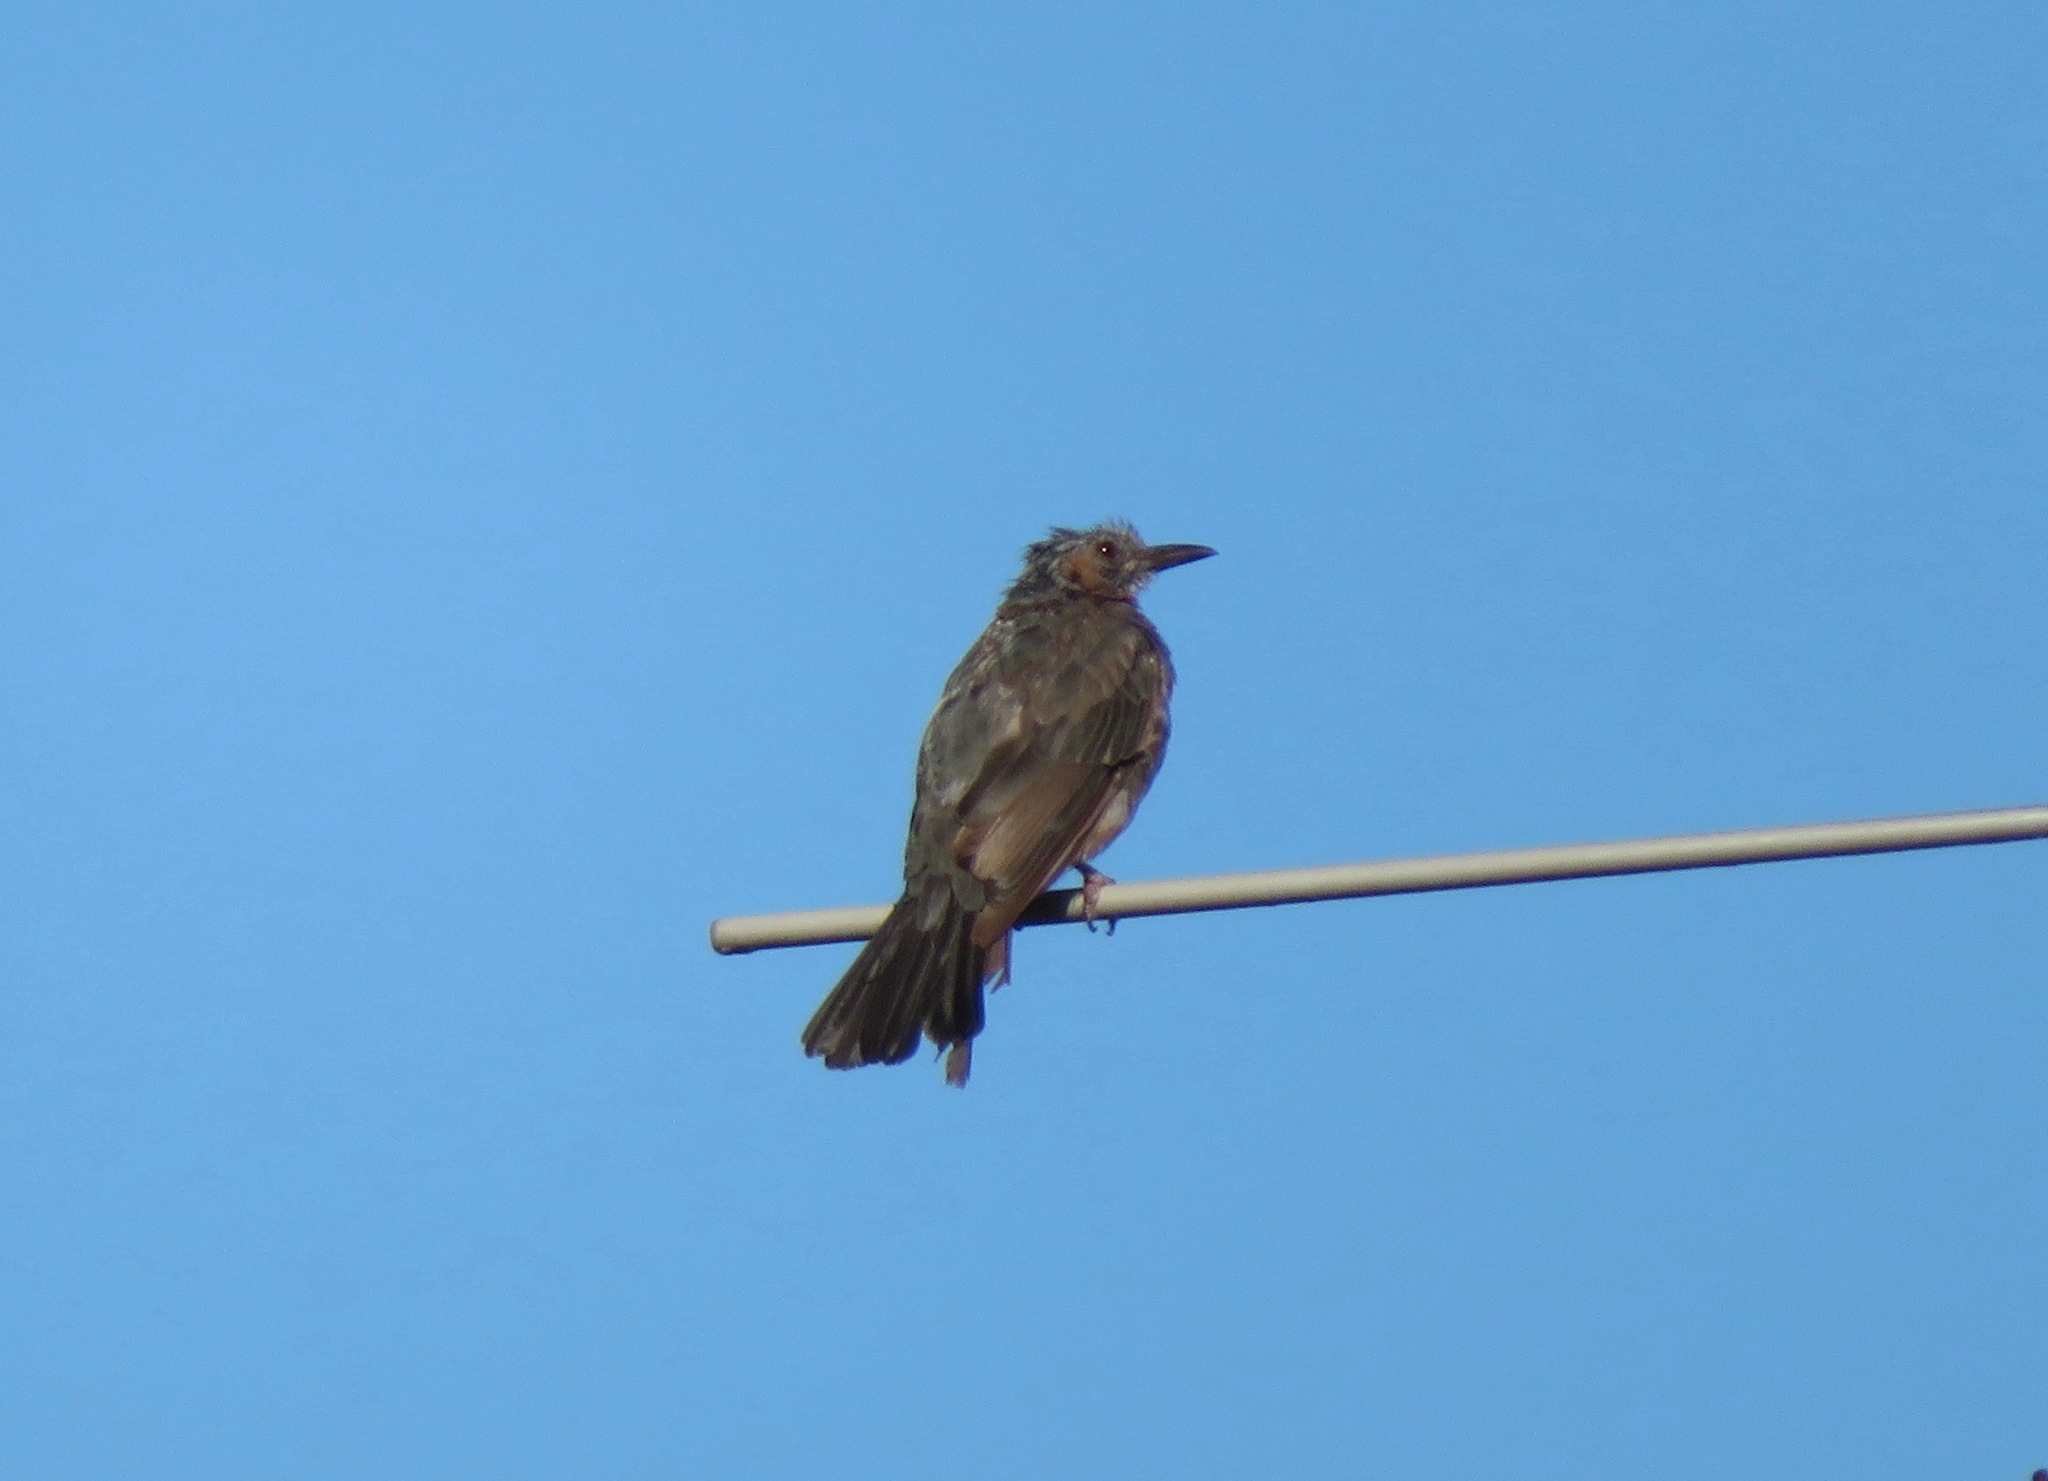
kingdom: Animalia
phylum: Chordata
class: Aves
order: Passeriformes
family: Pycnonotidae
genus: Hypsipetes
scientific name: Hypsipetes amaurotis
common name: Brown-eared bulbul
